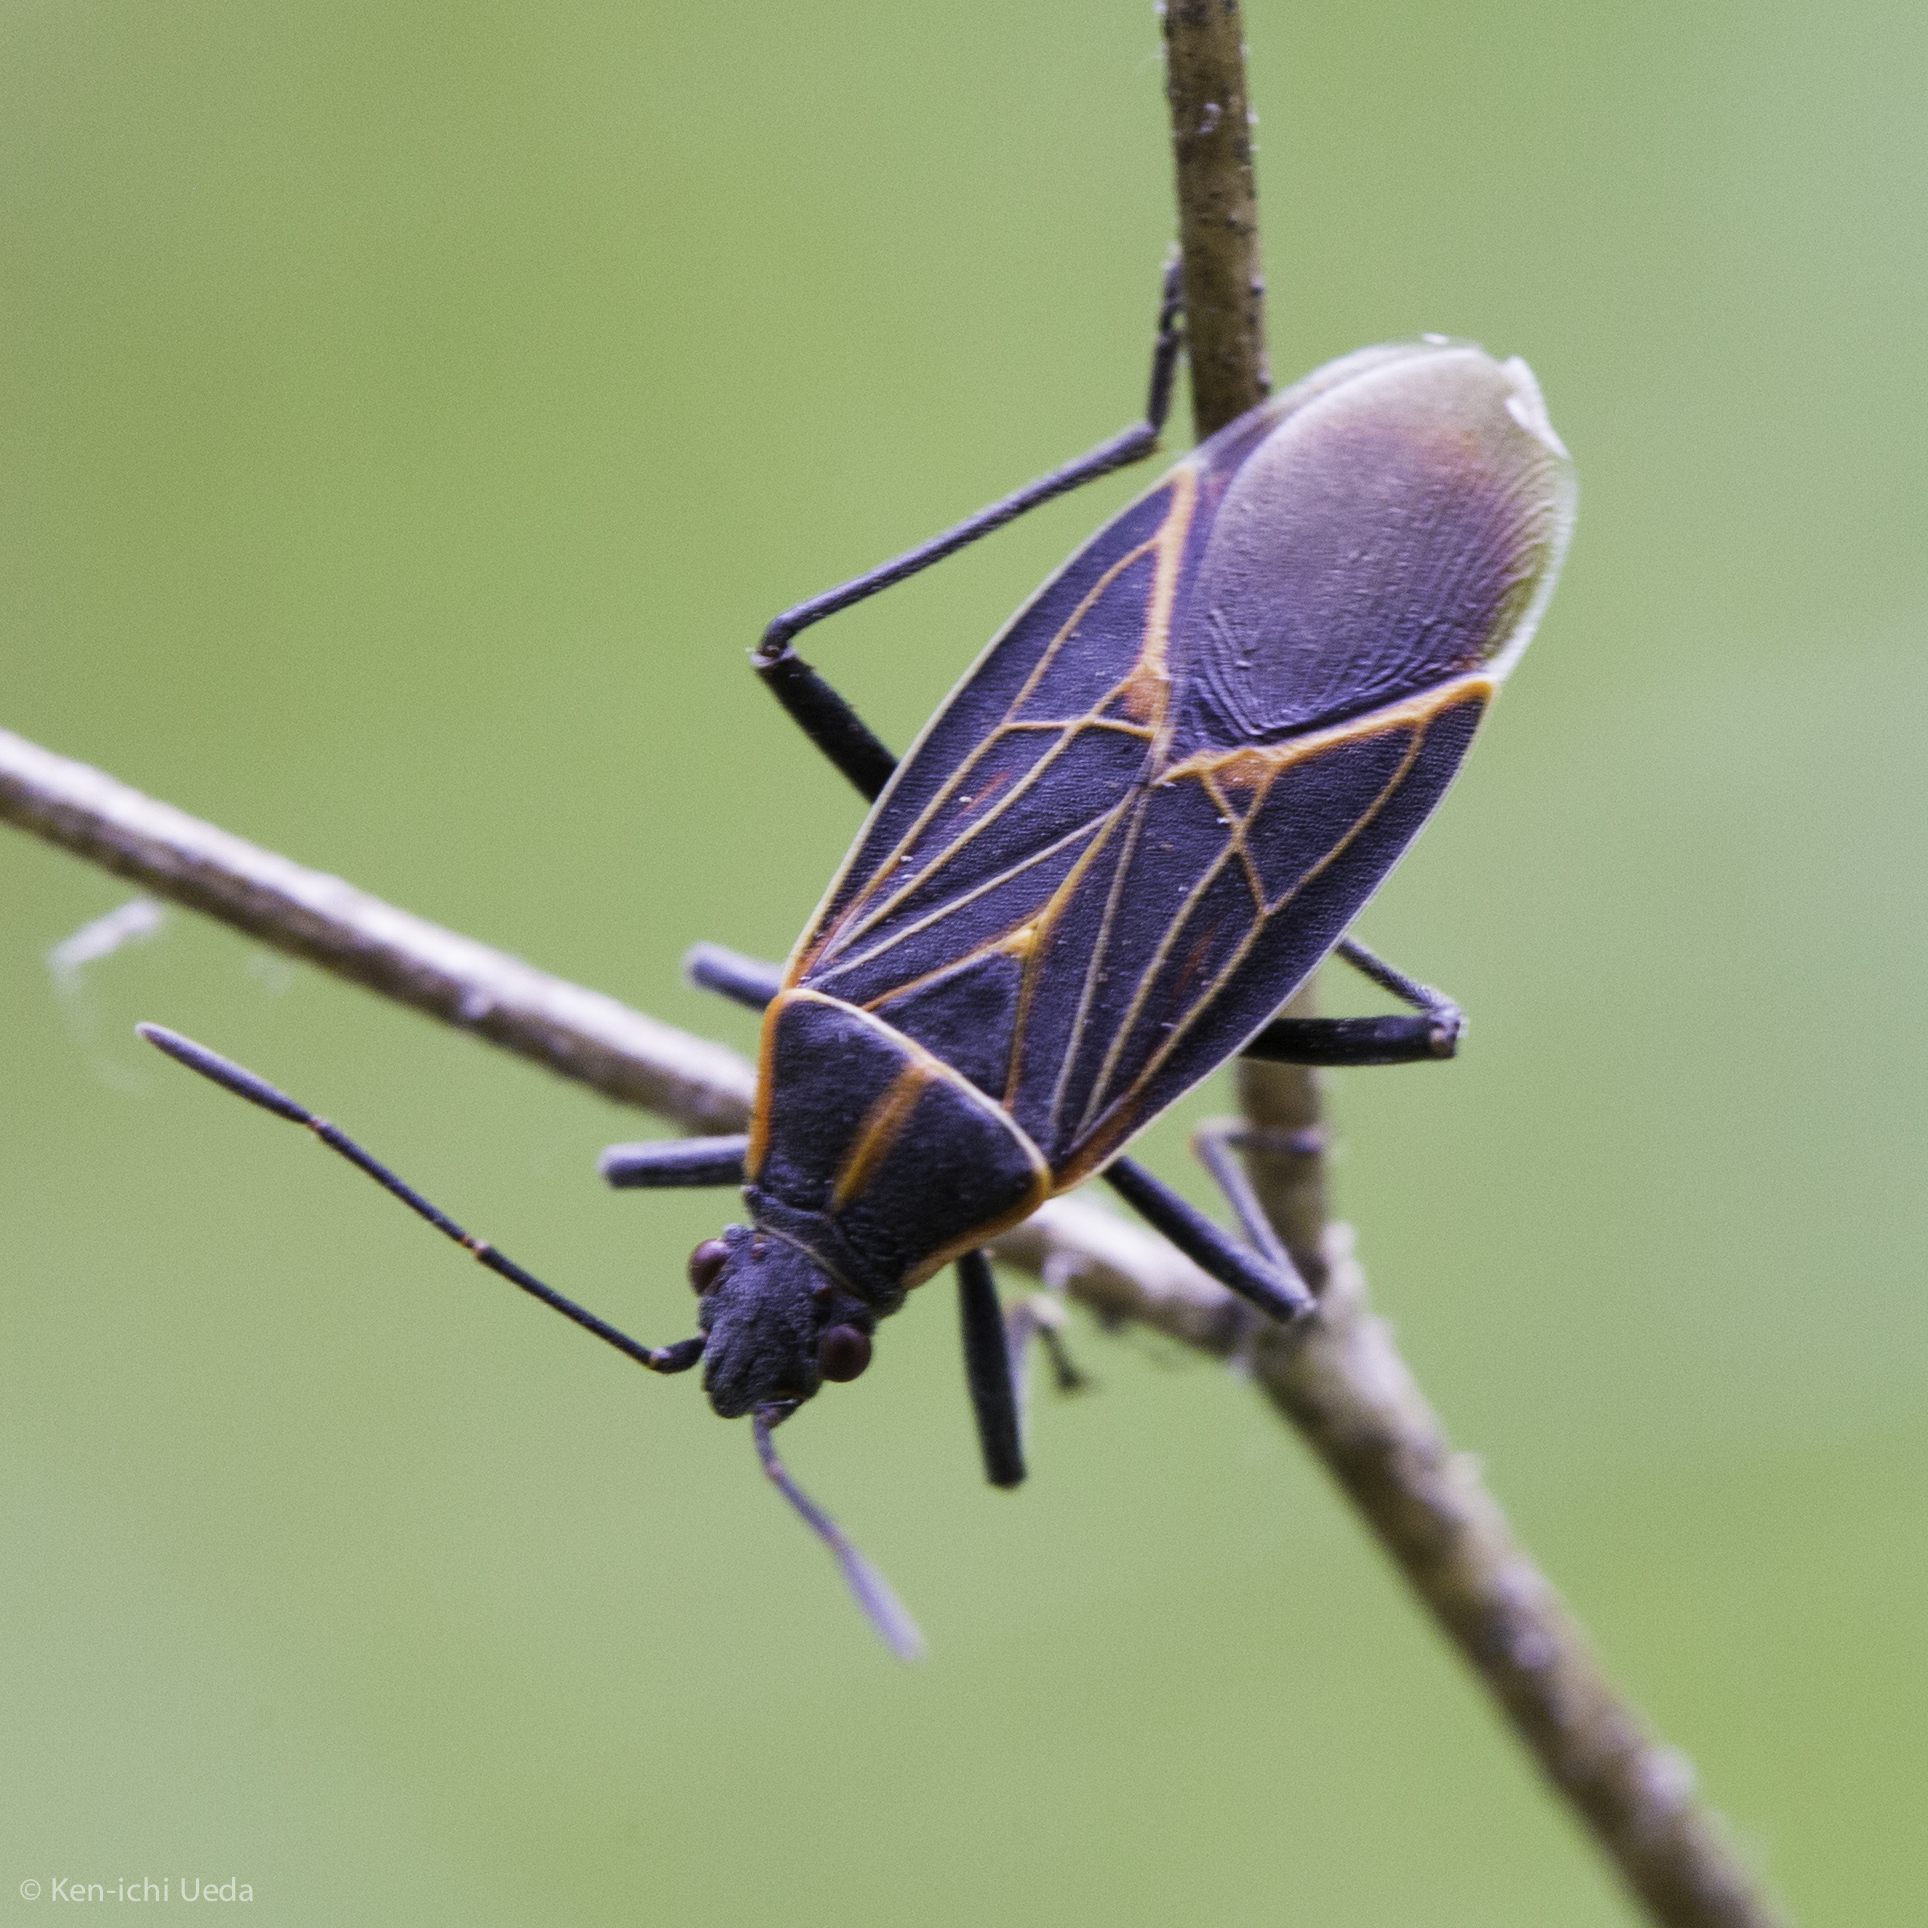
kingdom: Animalia
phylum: Arthropoda
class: Insecta
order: Hemiptera
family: Rhopalidae
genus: Boisea
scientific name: Boisea rubrolineata
